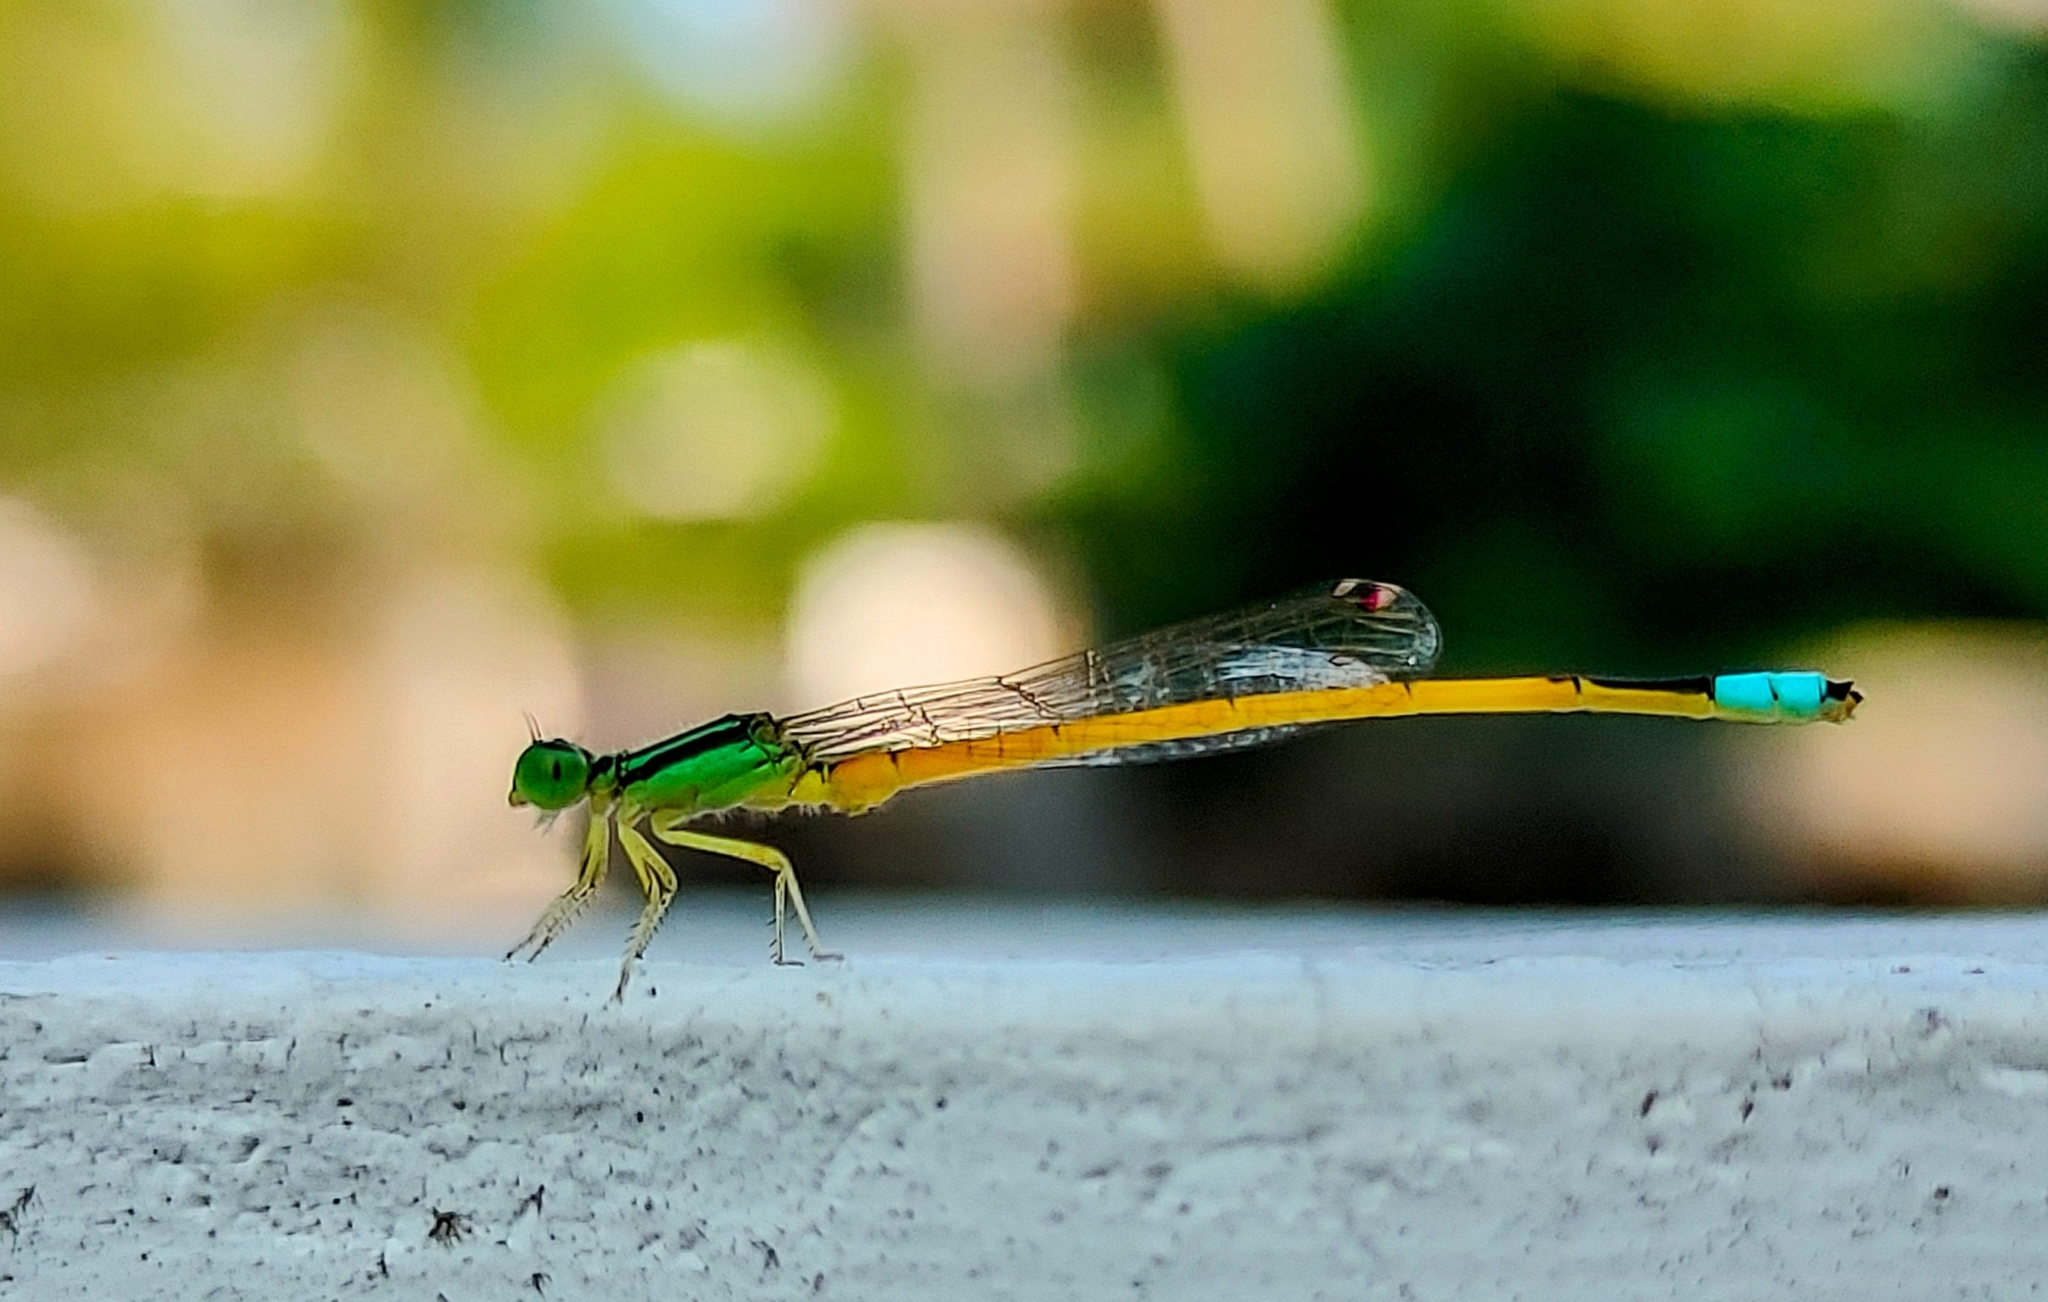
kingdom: Animalia
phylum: Arthropoda
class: Insecta
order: Odonata
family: Coenagrionidae
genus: Ischnura
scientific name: Ischnura rubilio
